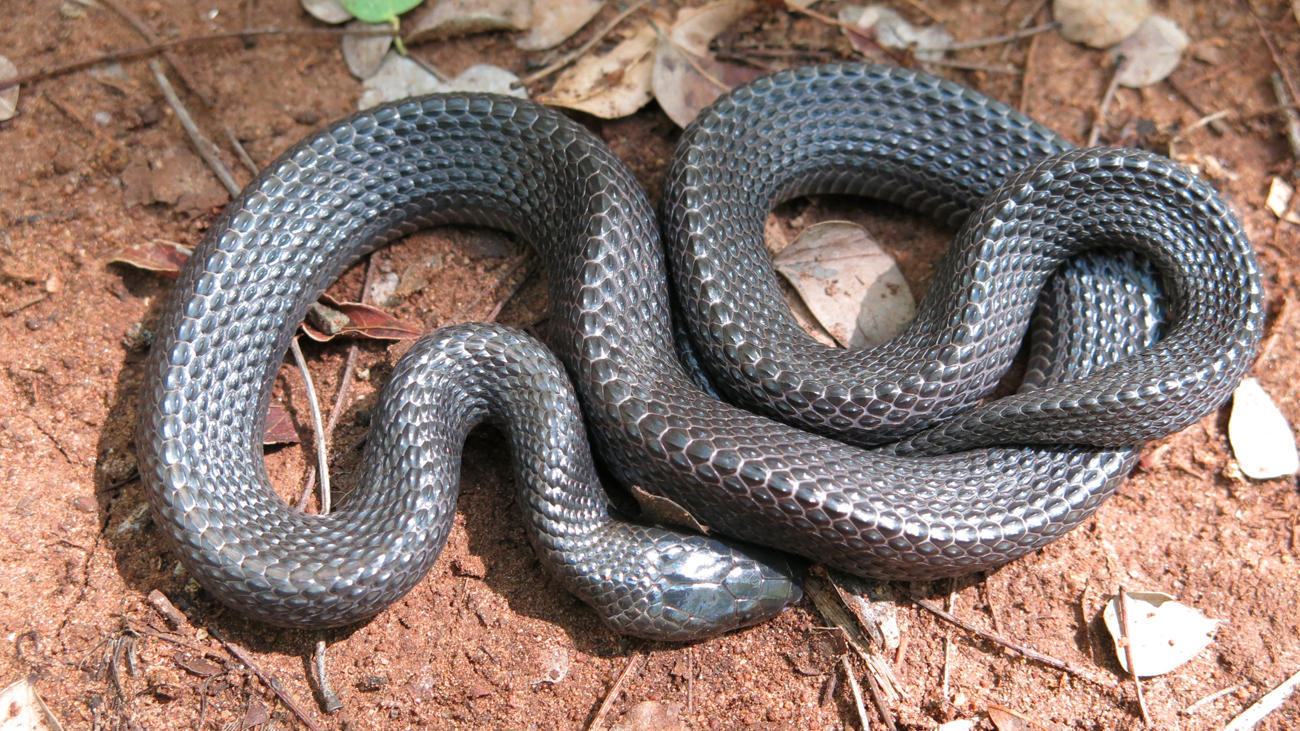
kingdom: Animalia
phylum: Chordata
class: Squamata
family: Lamprophiidae
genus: Gracililima
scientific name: Gracililima nyassae
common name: Black file snake
